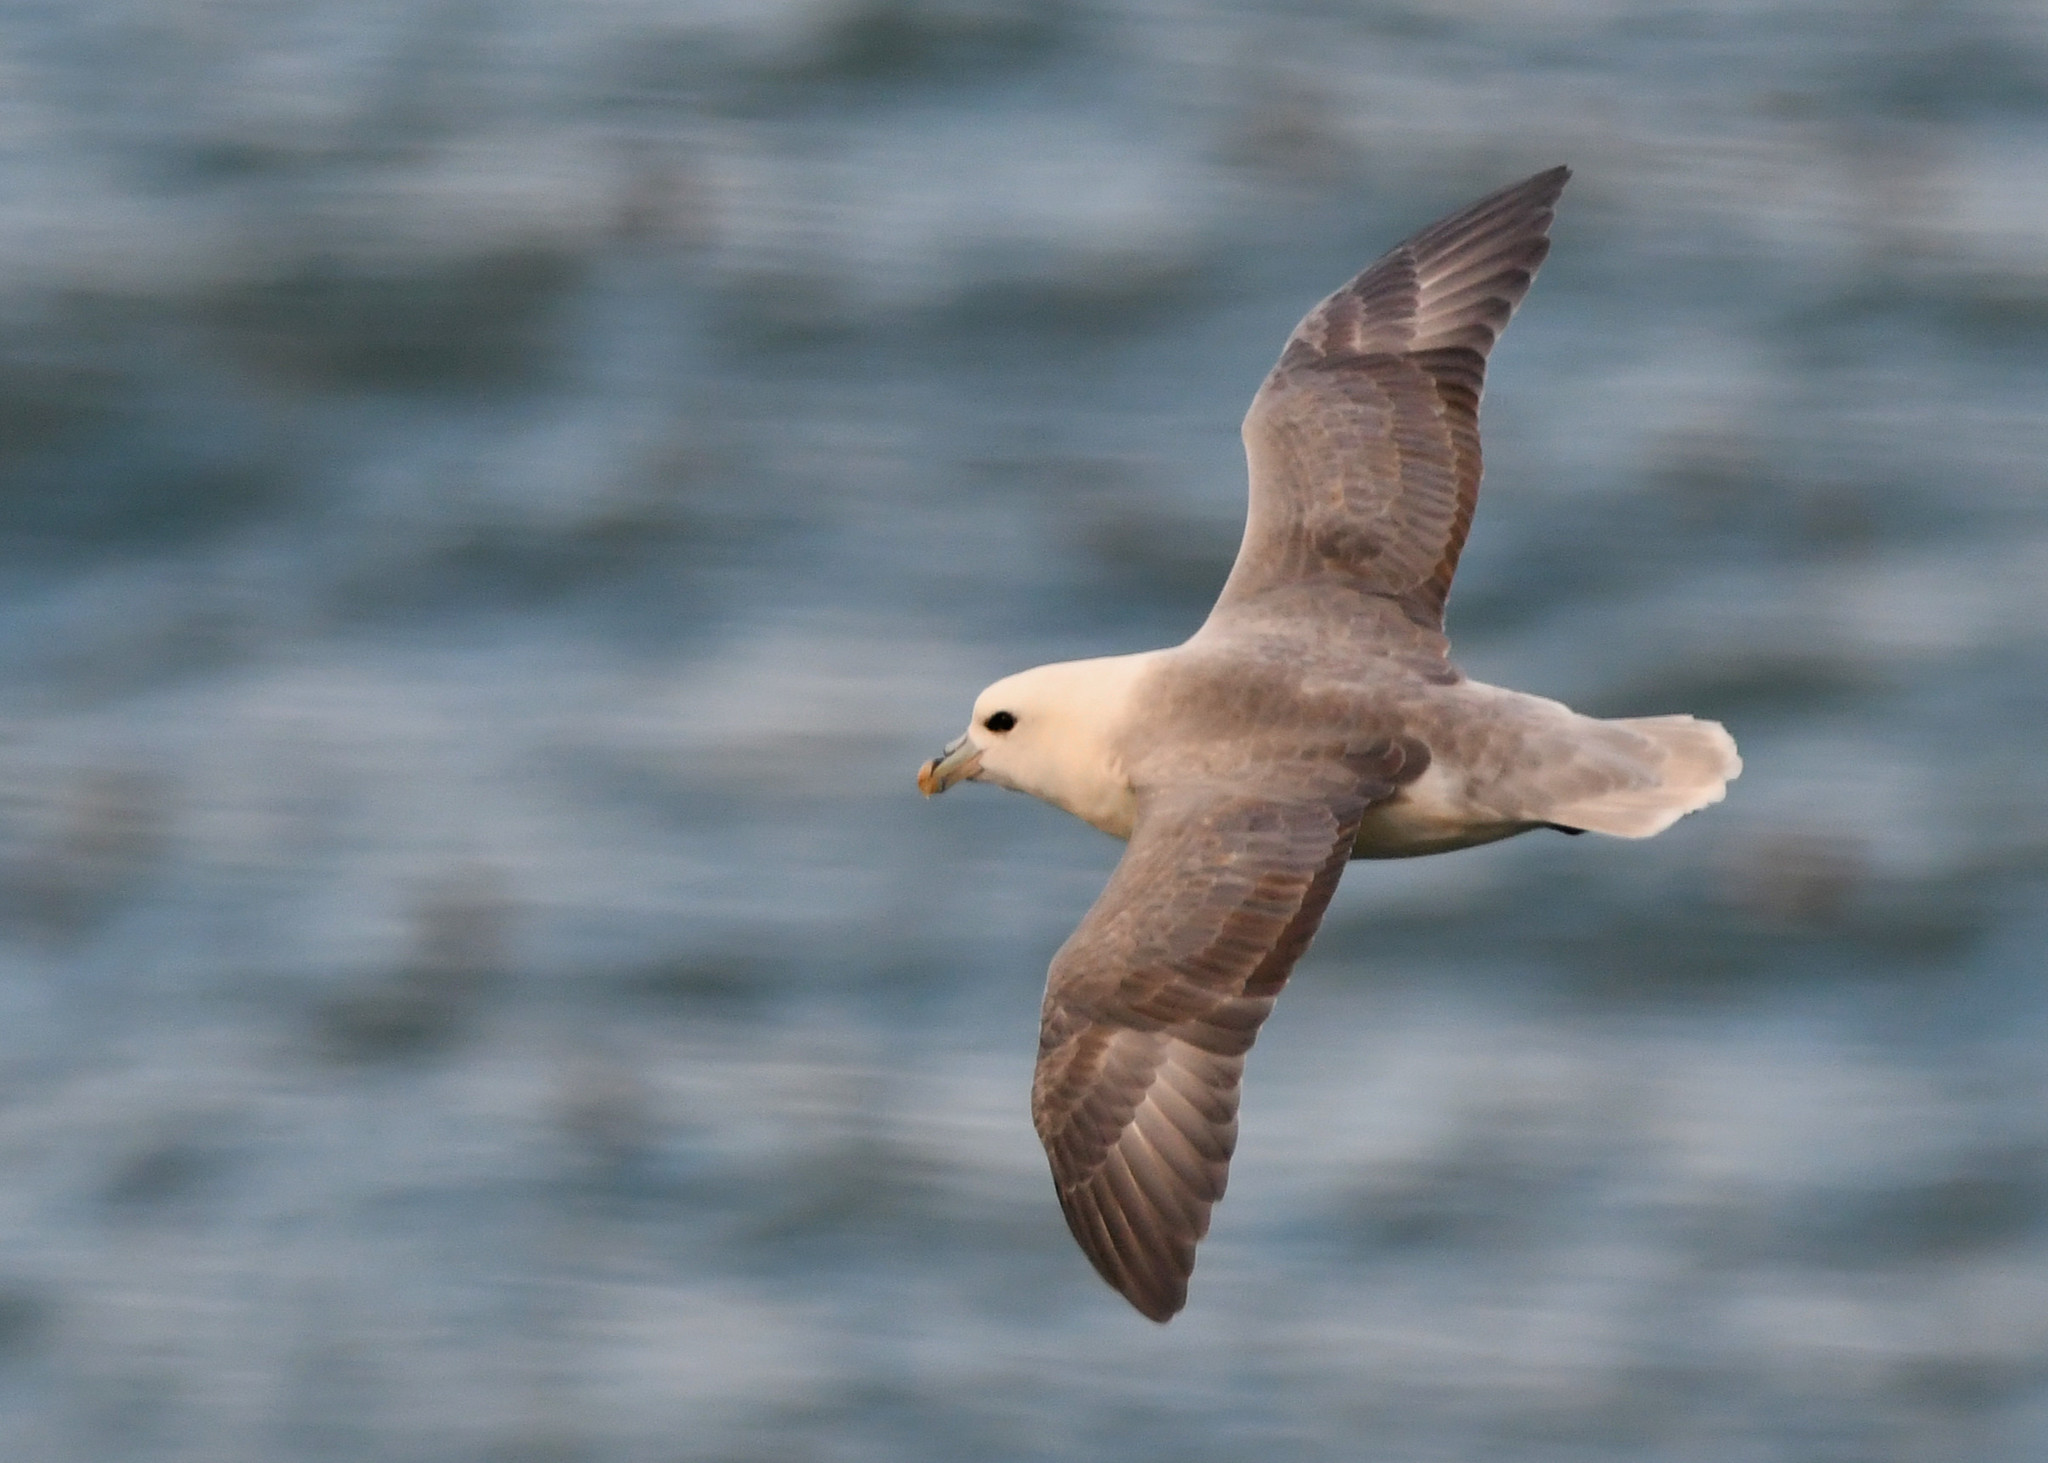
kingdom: Animalia
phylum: Chordata
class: Aves
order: Procellariiformes
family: Procellariidae
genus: Fulmarus
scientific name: Fulmarus glacialis
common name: Northern fulmar
